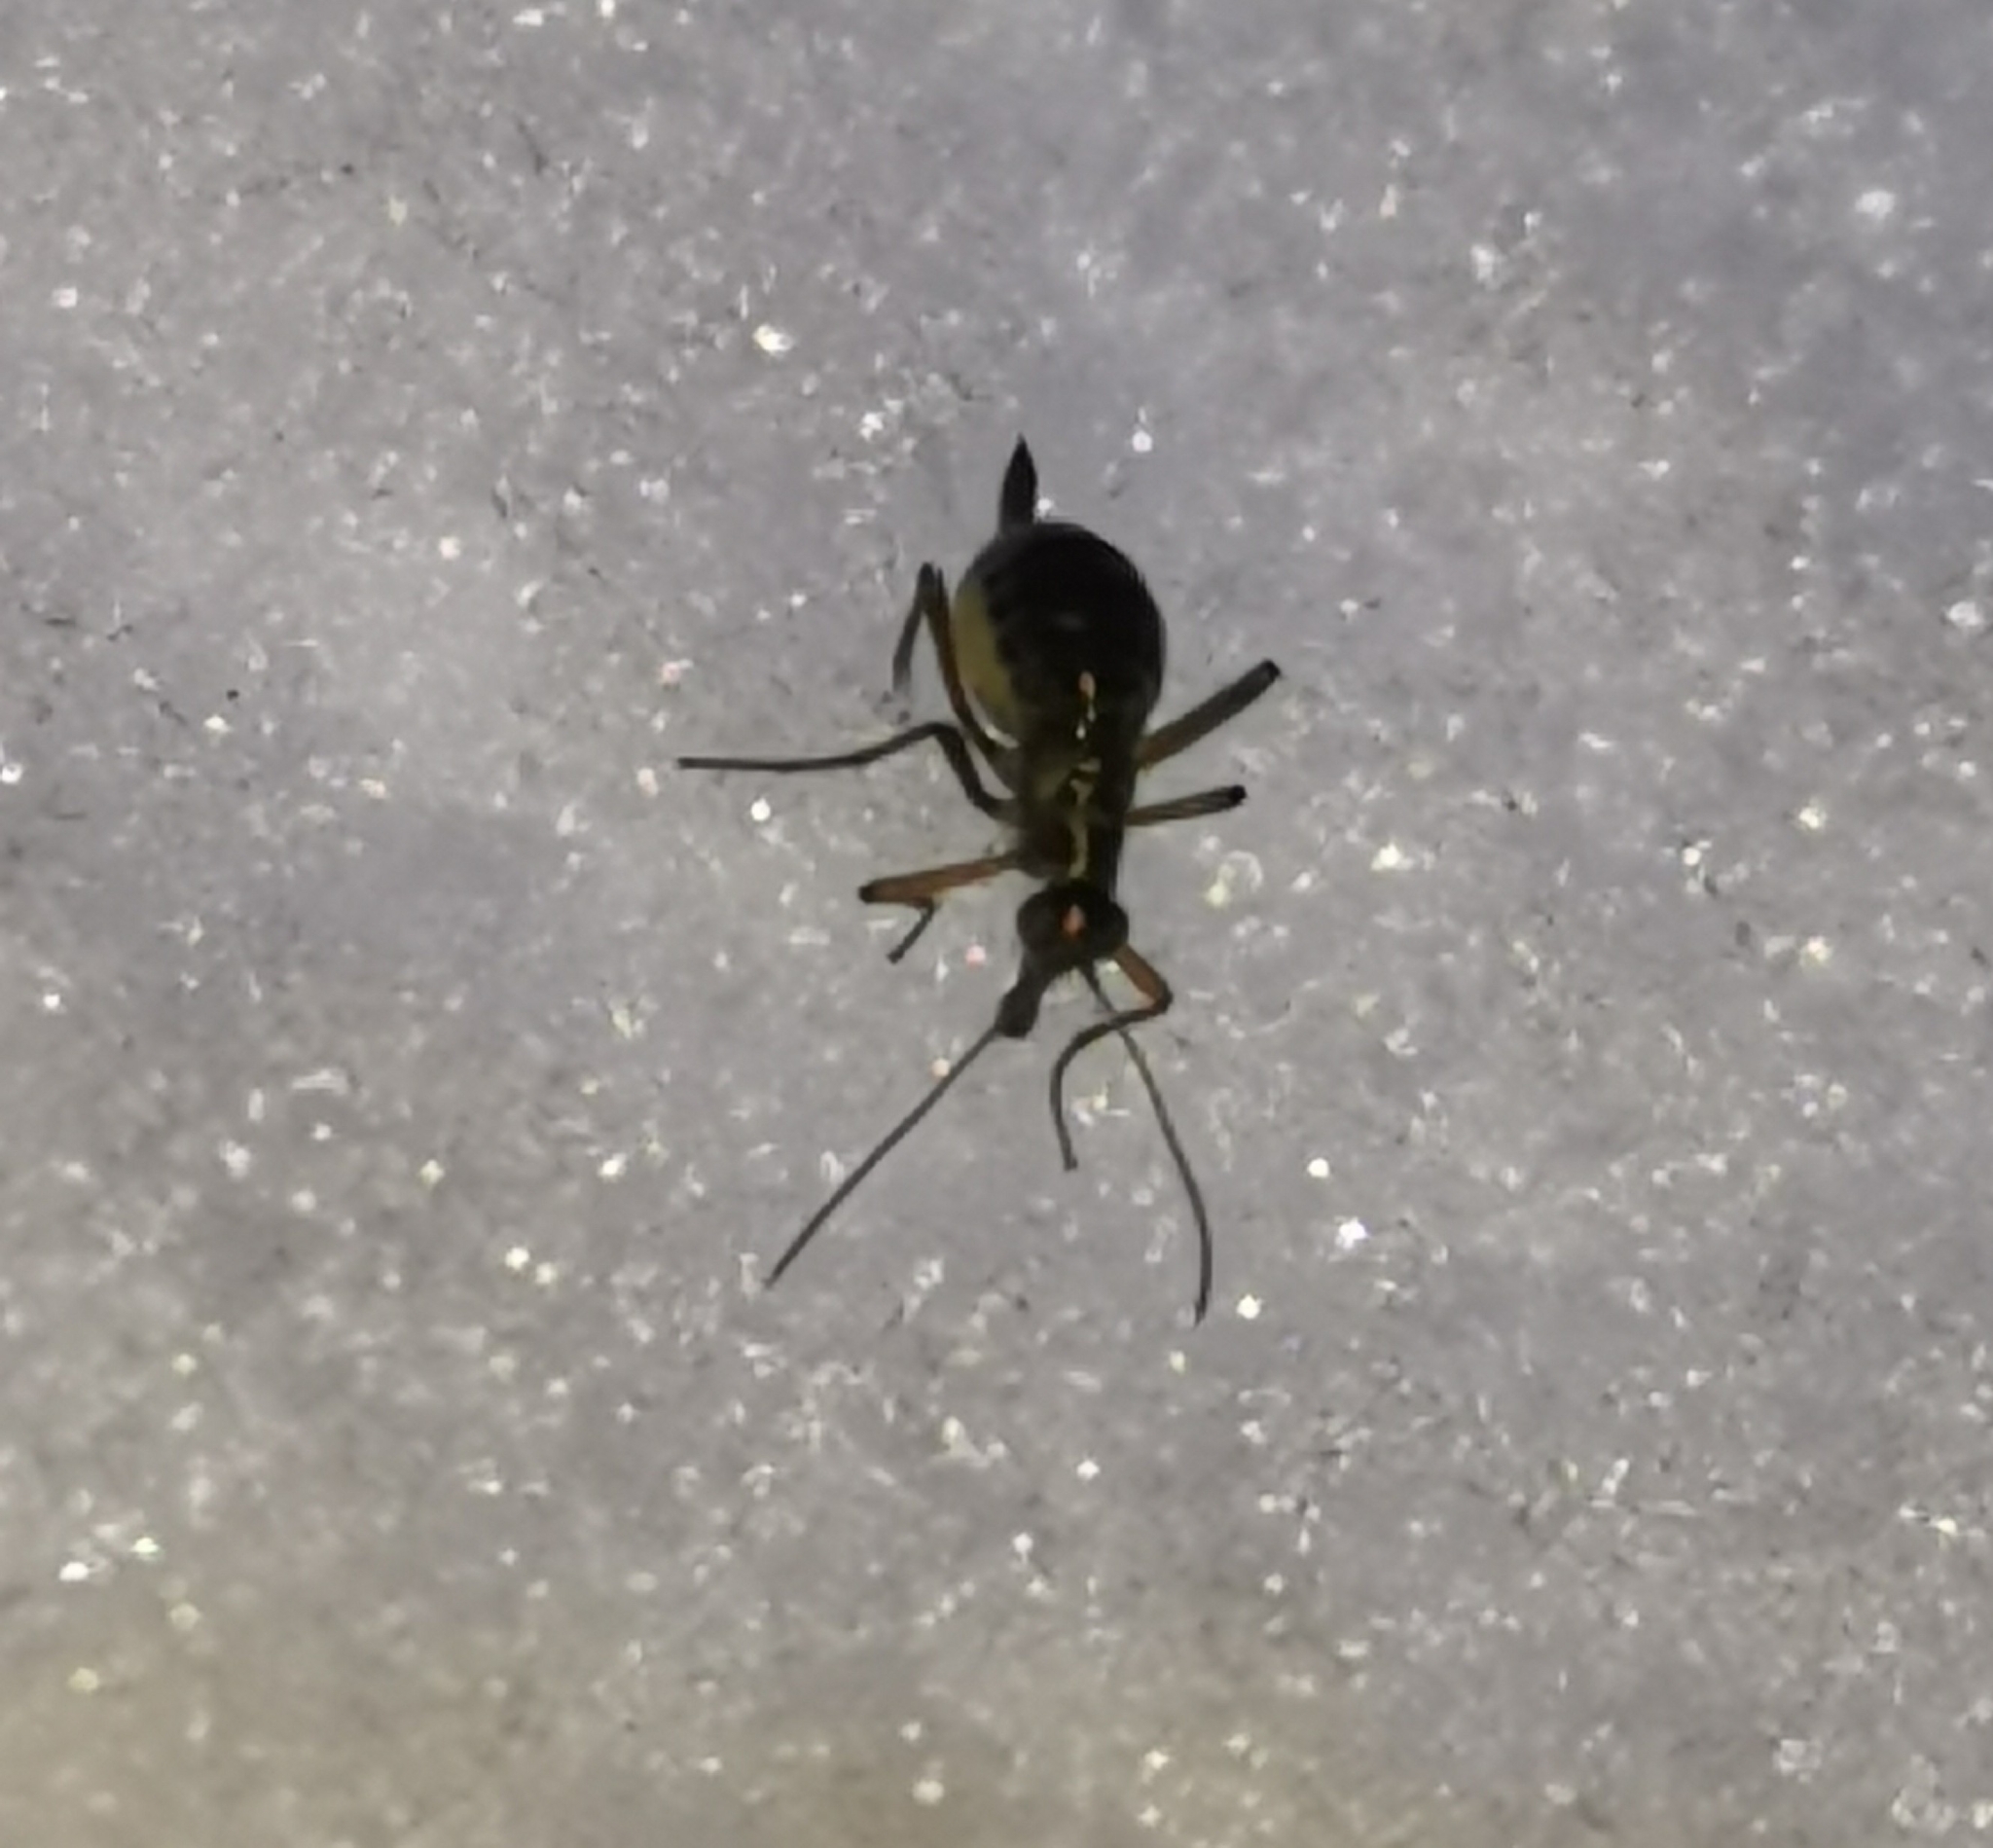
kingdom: Animalia
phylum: Arthropoda
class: Insecta
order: Mecoptera
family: Boreidae
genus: Boreus
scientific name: Boreus westwoodi
